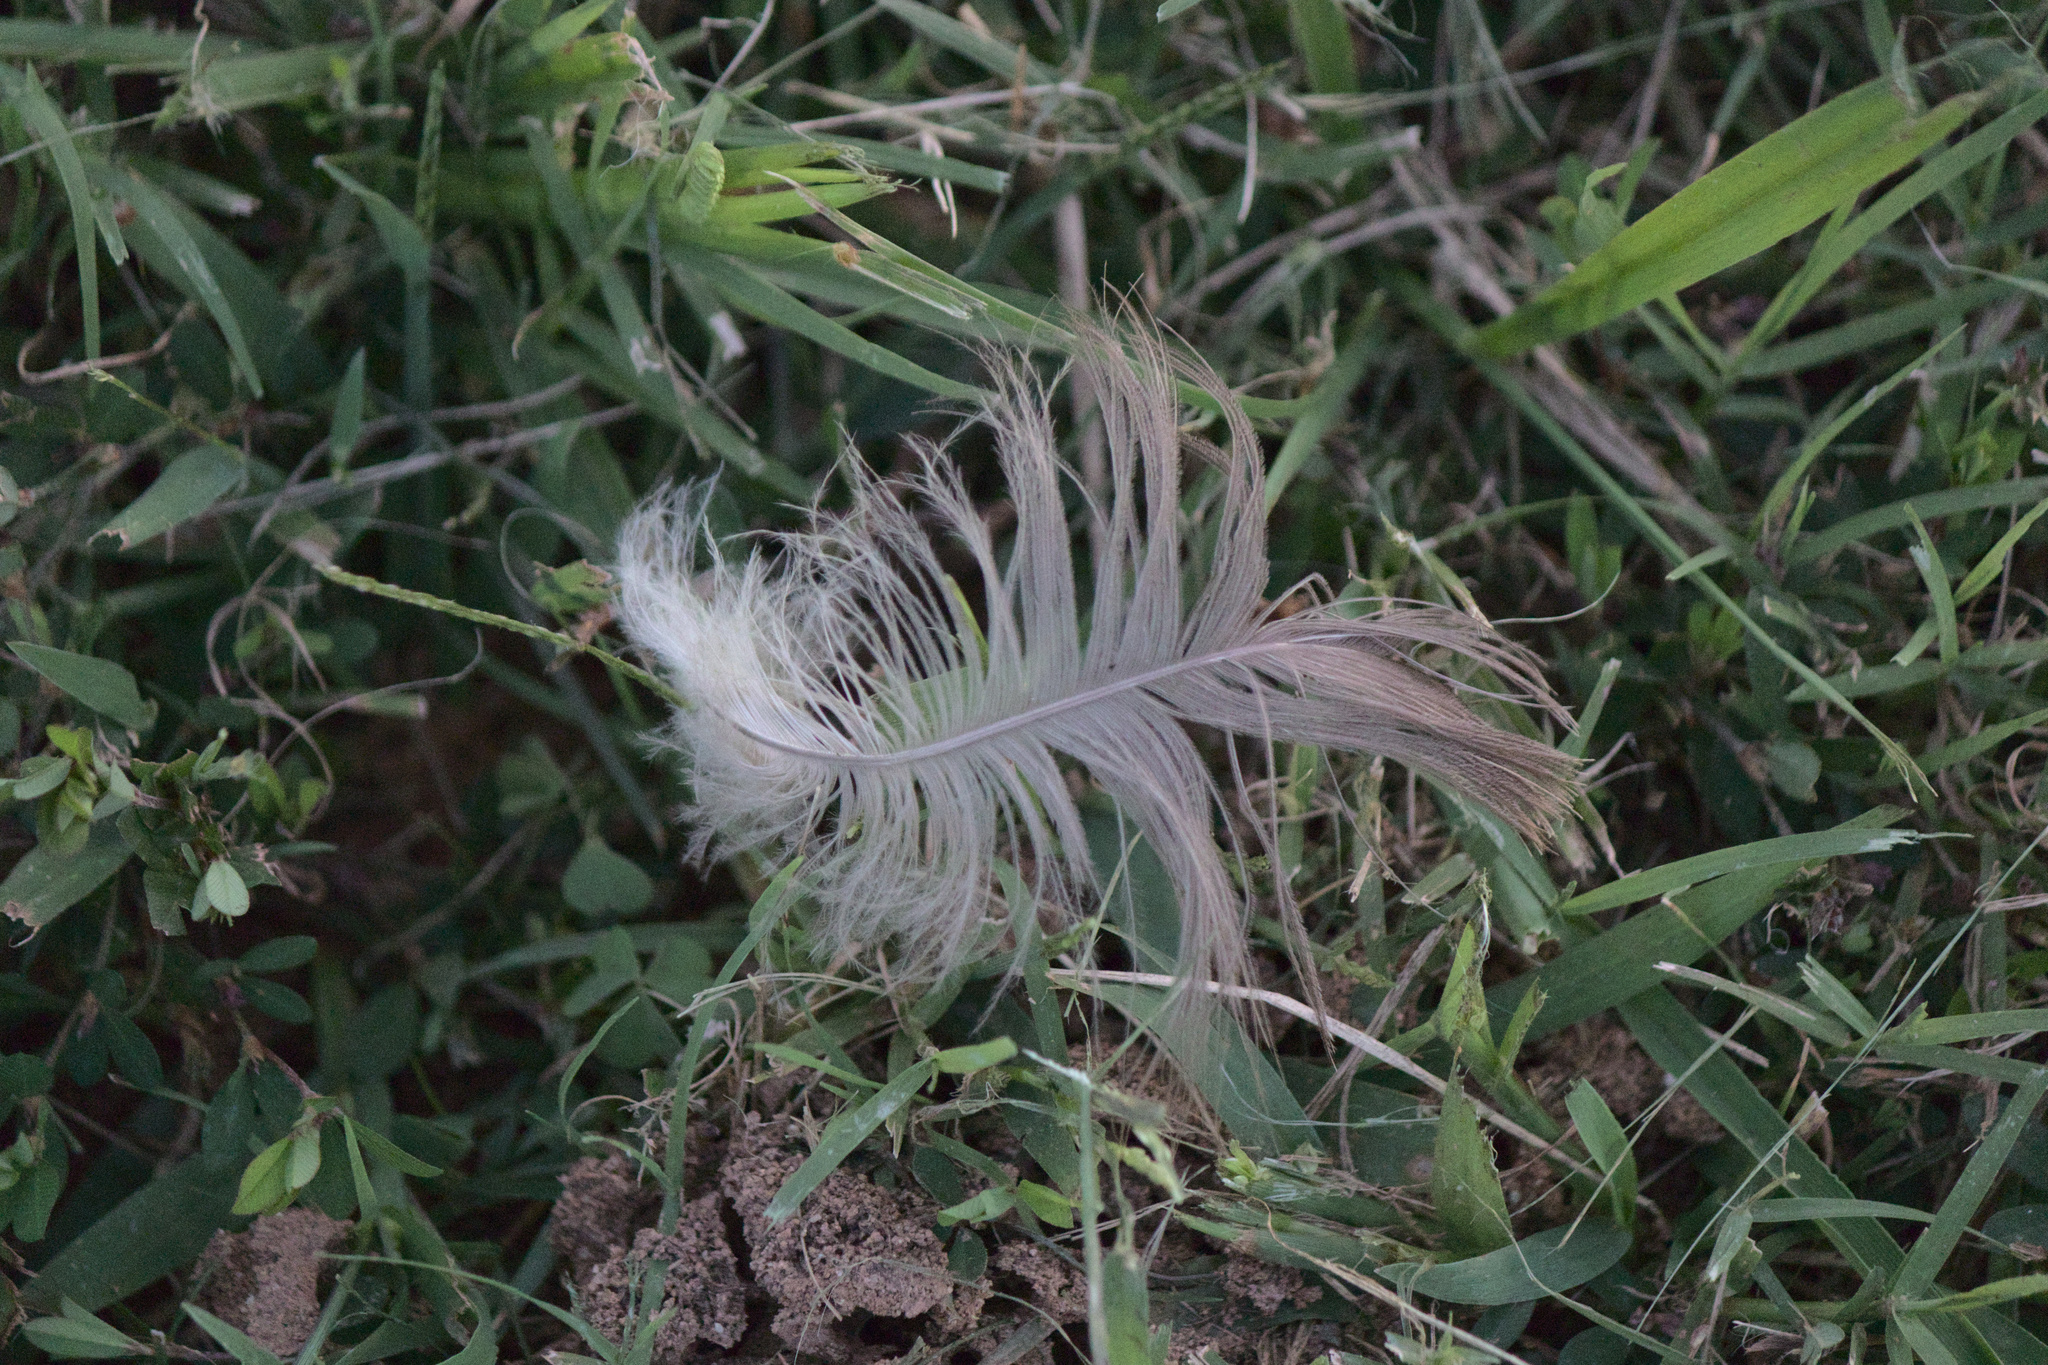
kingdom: Animalia
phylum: Chordata
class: Aves
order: Anseriformes
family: Anatidae
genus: Branta
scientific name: Branta canadensis
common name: Canada goose
